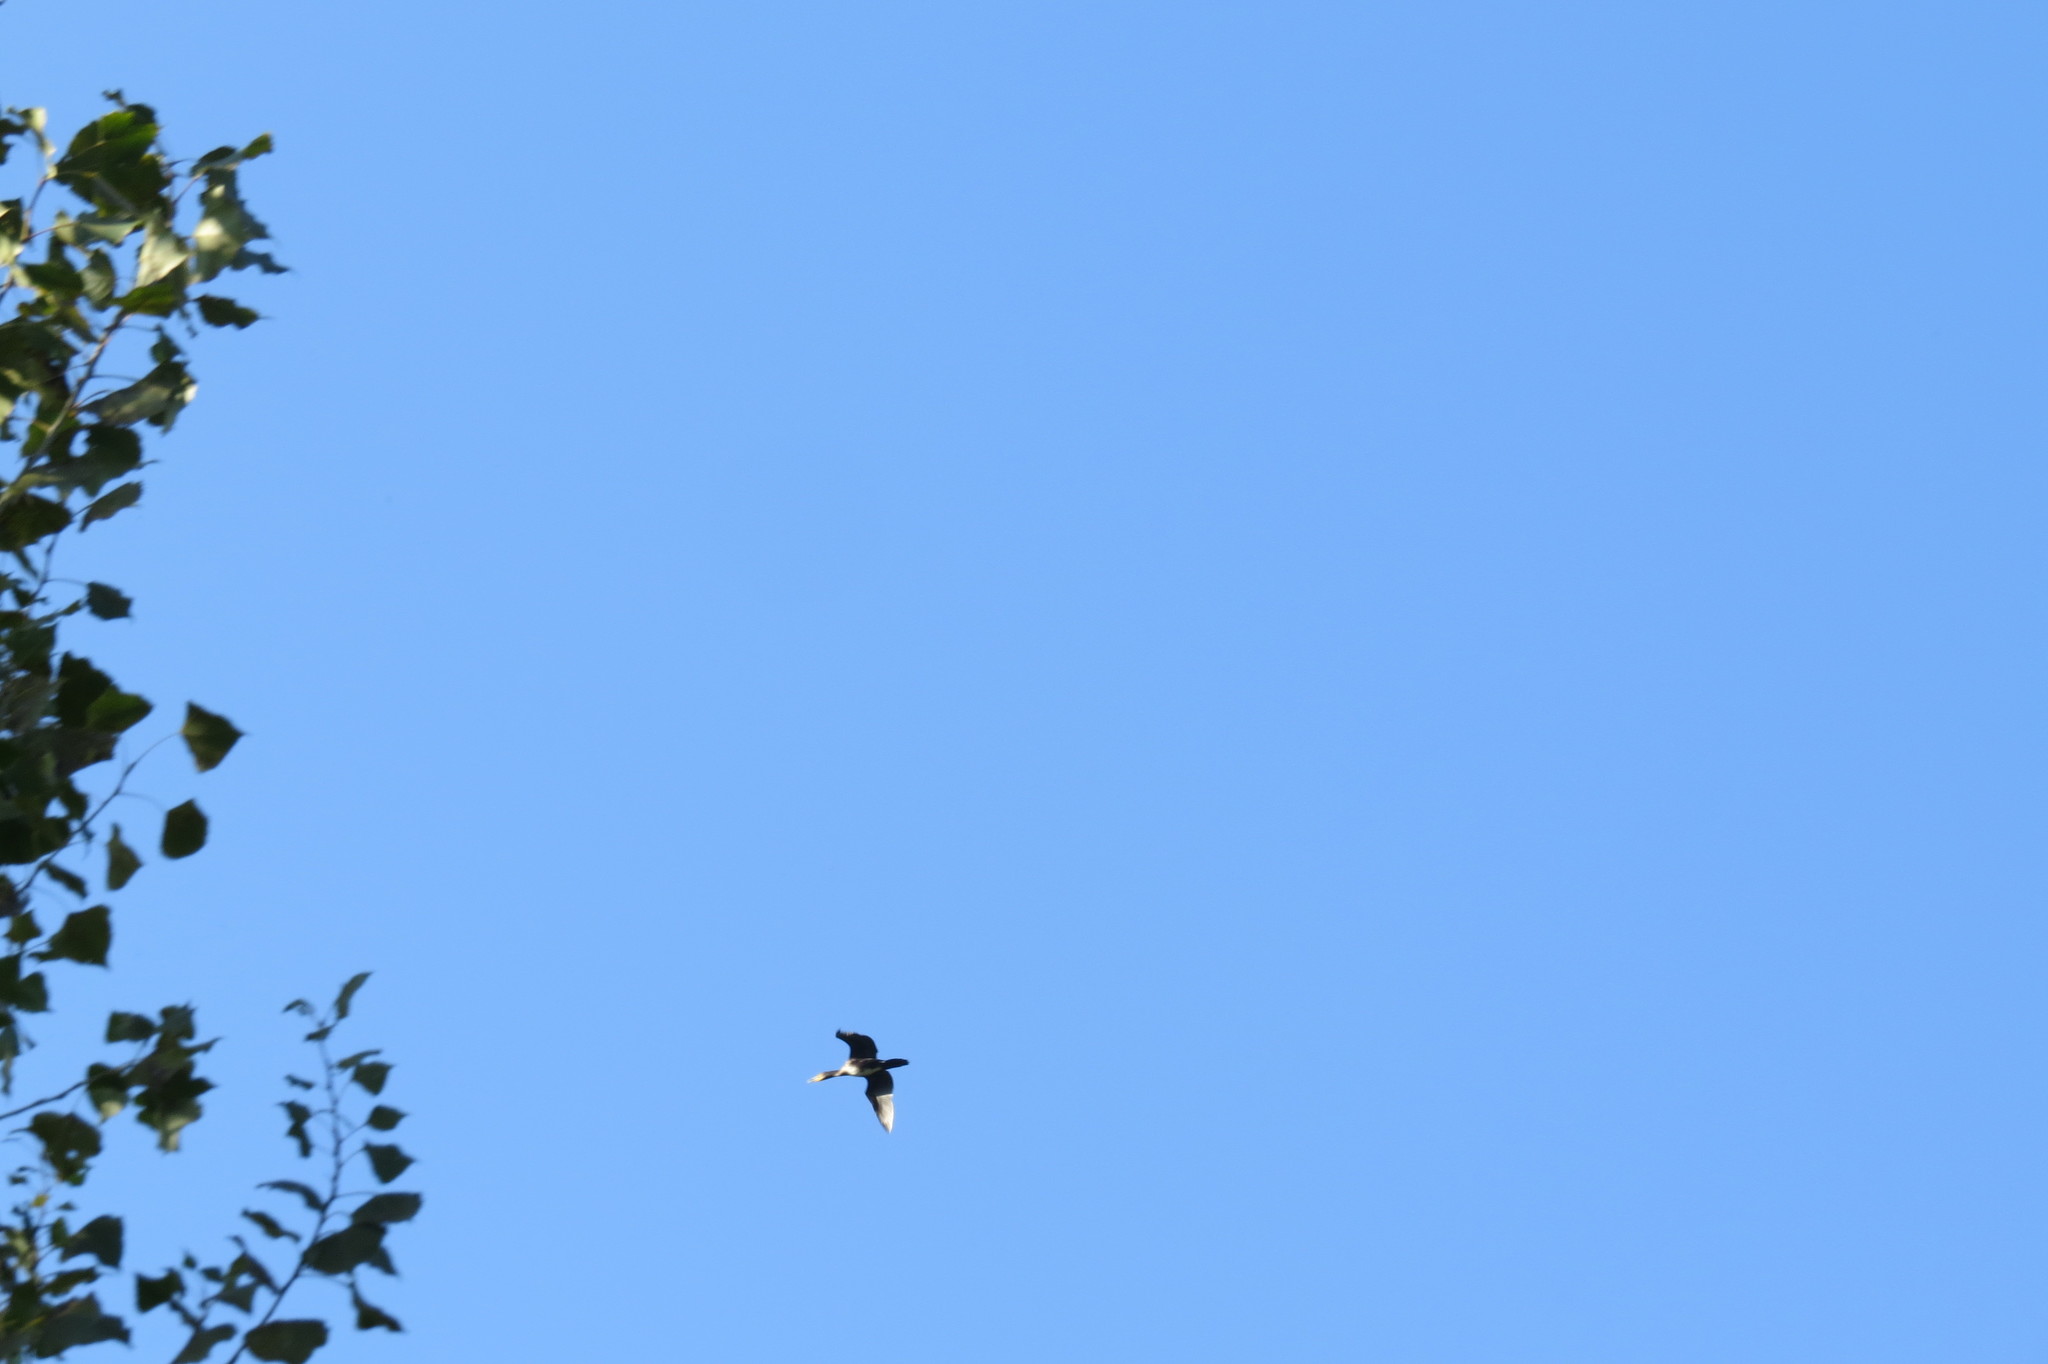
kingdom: Animalia
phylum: Chordata
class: Aves
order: Suliformes
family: Phalacrocoracidae
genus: Phalacrocorax
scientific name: Phalacrocorax carbo
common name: Great cormorant
